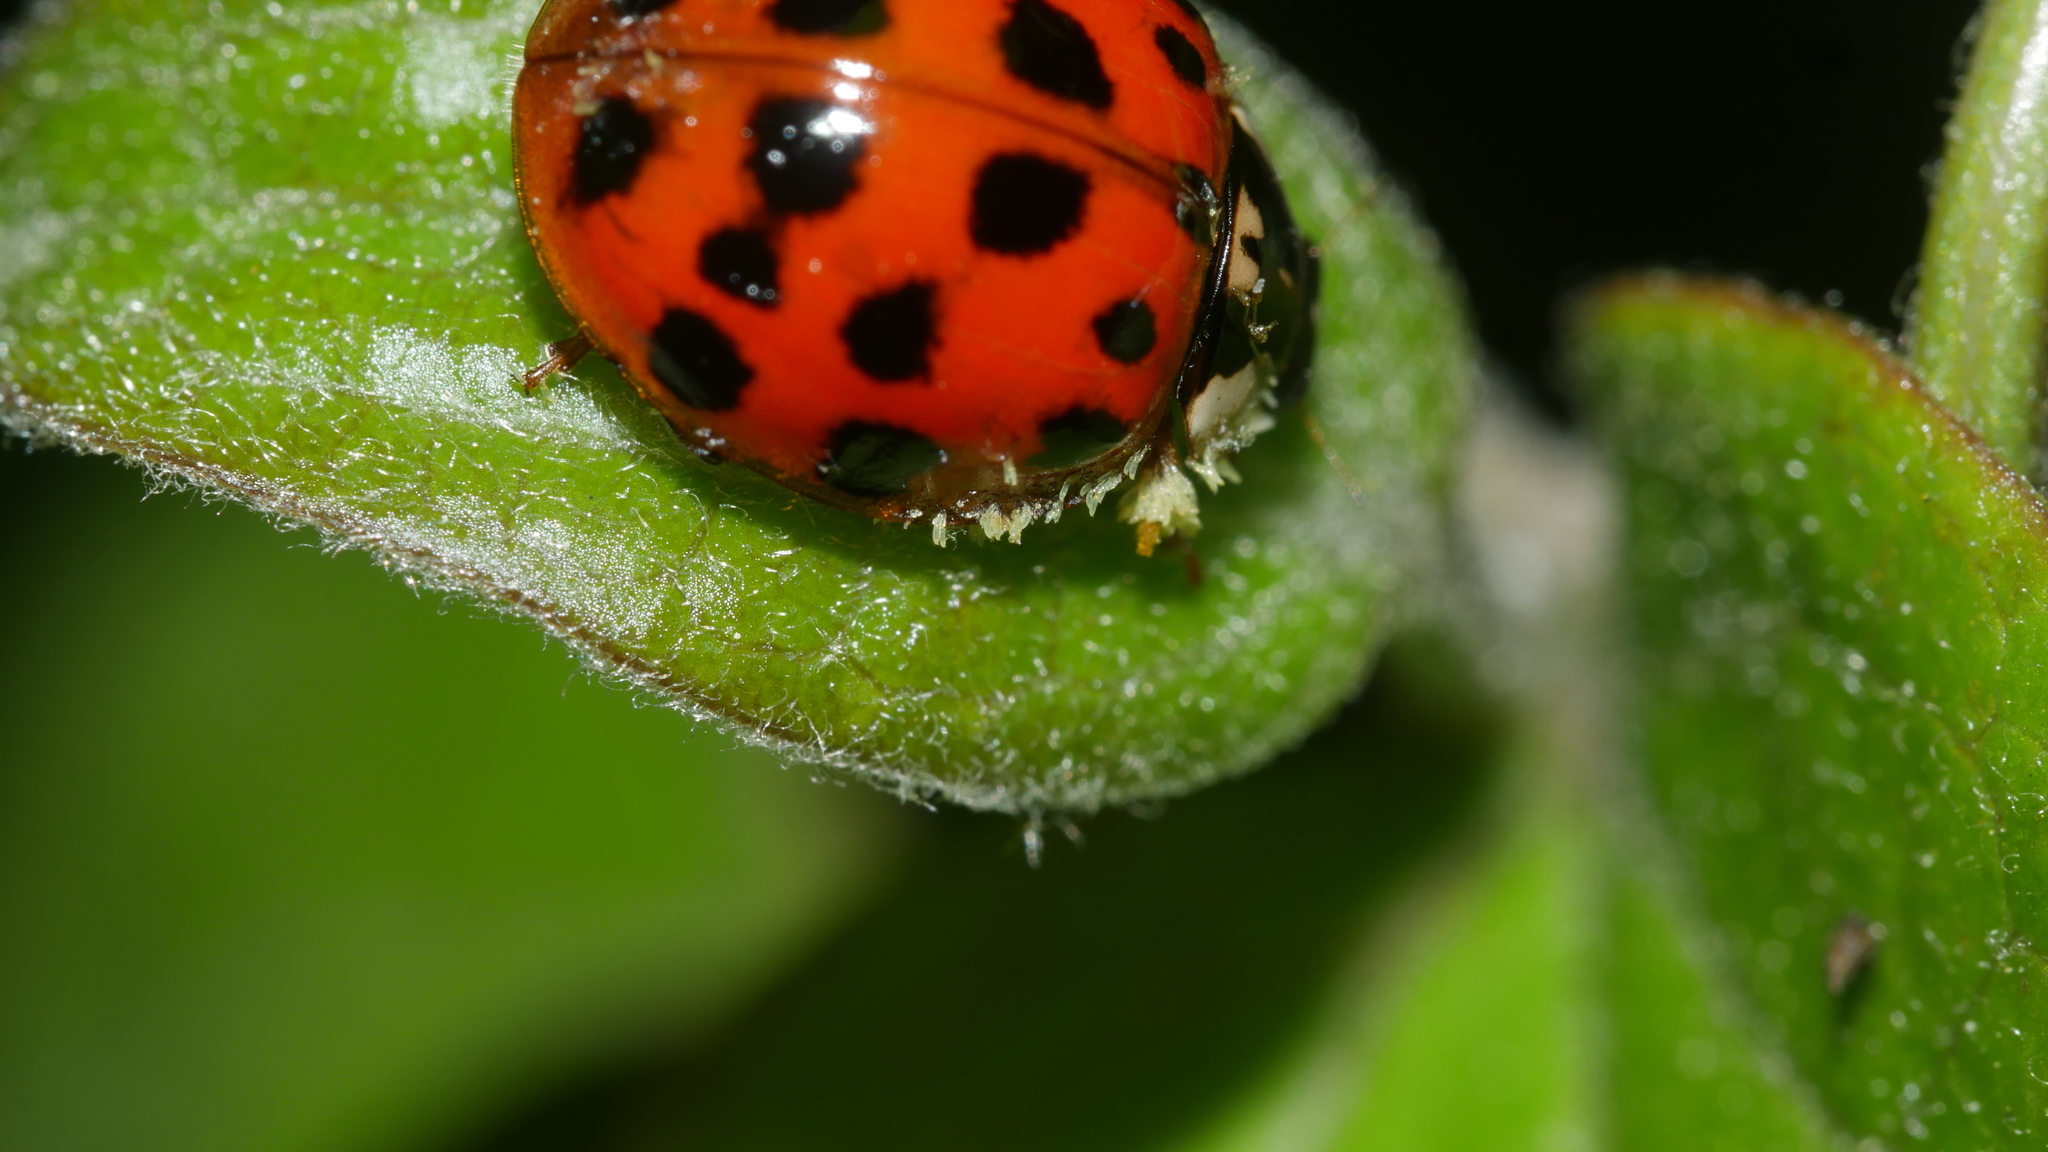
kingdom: Fungi
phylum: Ascomycota
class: Laboulbeniomycetes
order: Laboulbeniales
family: Laboulbeniaceae
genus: Hesperomyces
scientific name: Hesperomyces harmoniae
